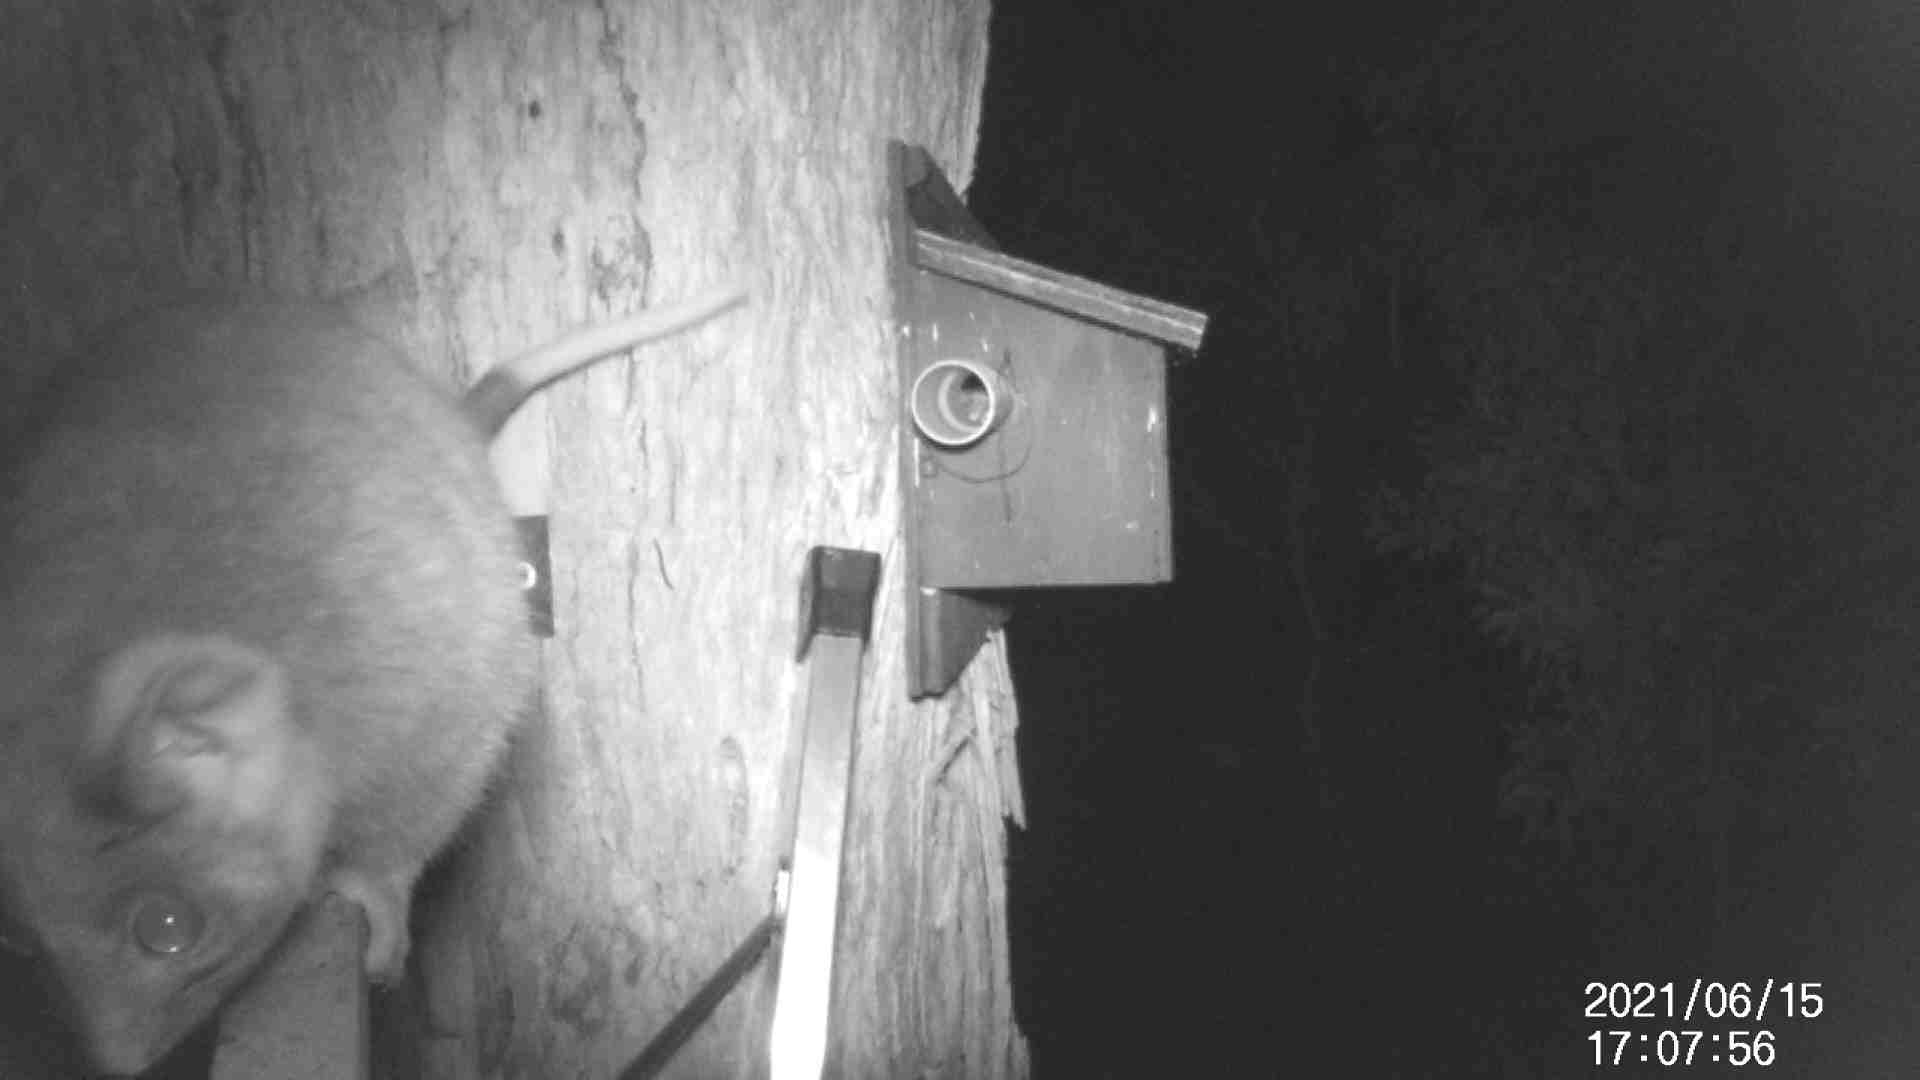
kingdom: Animalia
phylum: Chordata
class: Mammalia
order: Diprotodontia
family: Pseudocheiridae
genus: Pseudocheirus
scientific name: Pseudocheirus peregrinus
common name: Common ringtail possum
